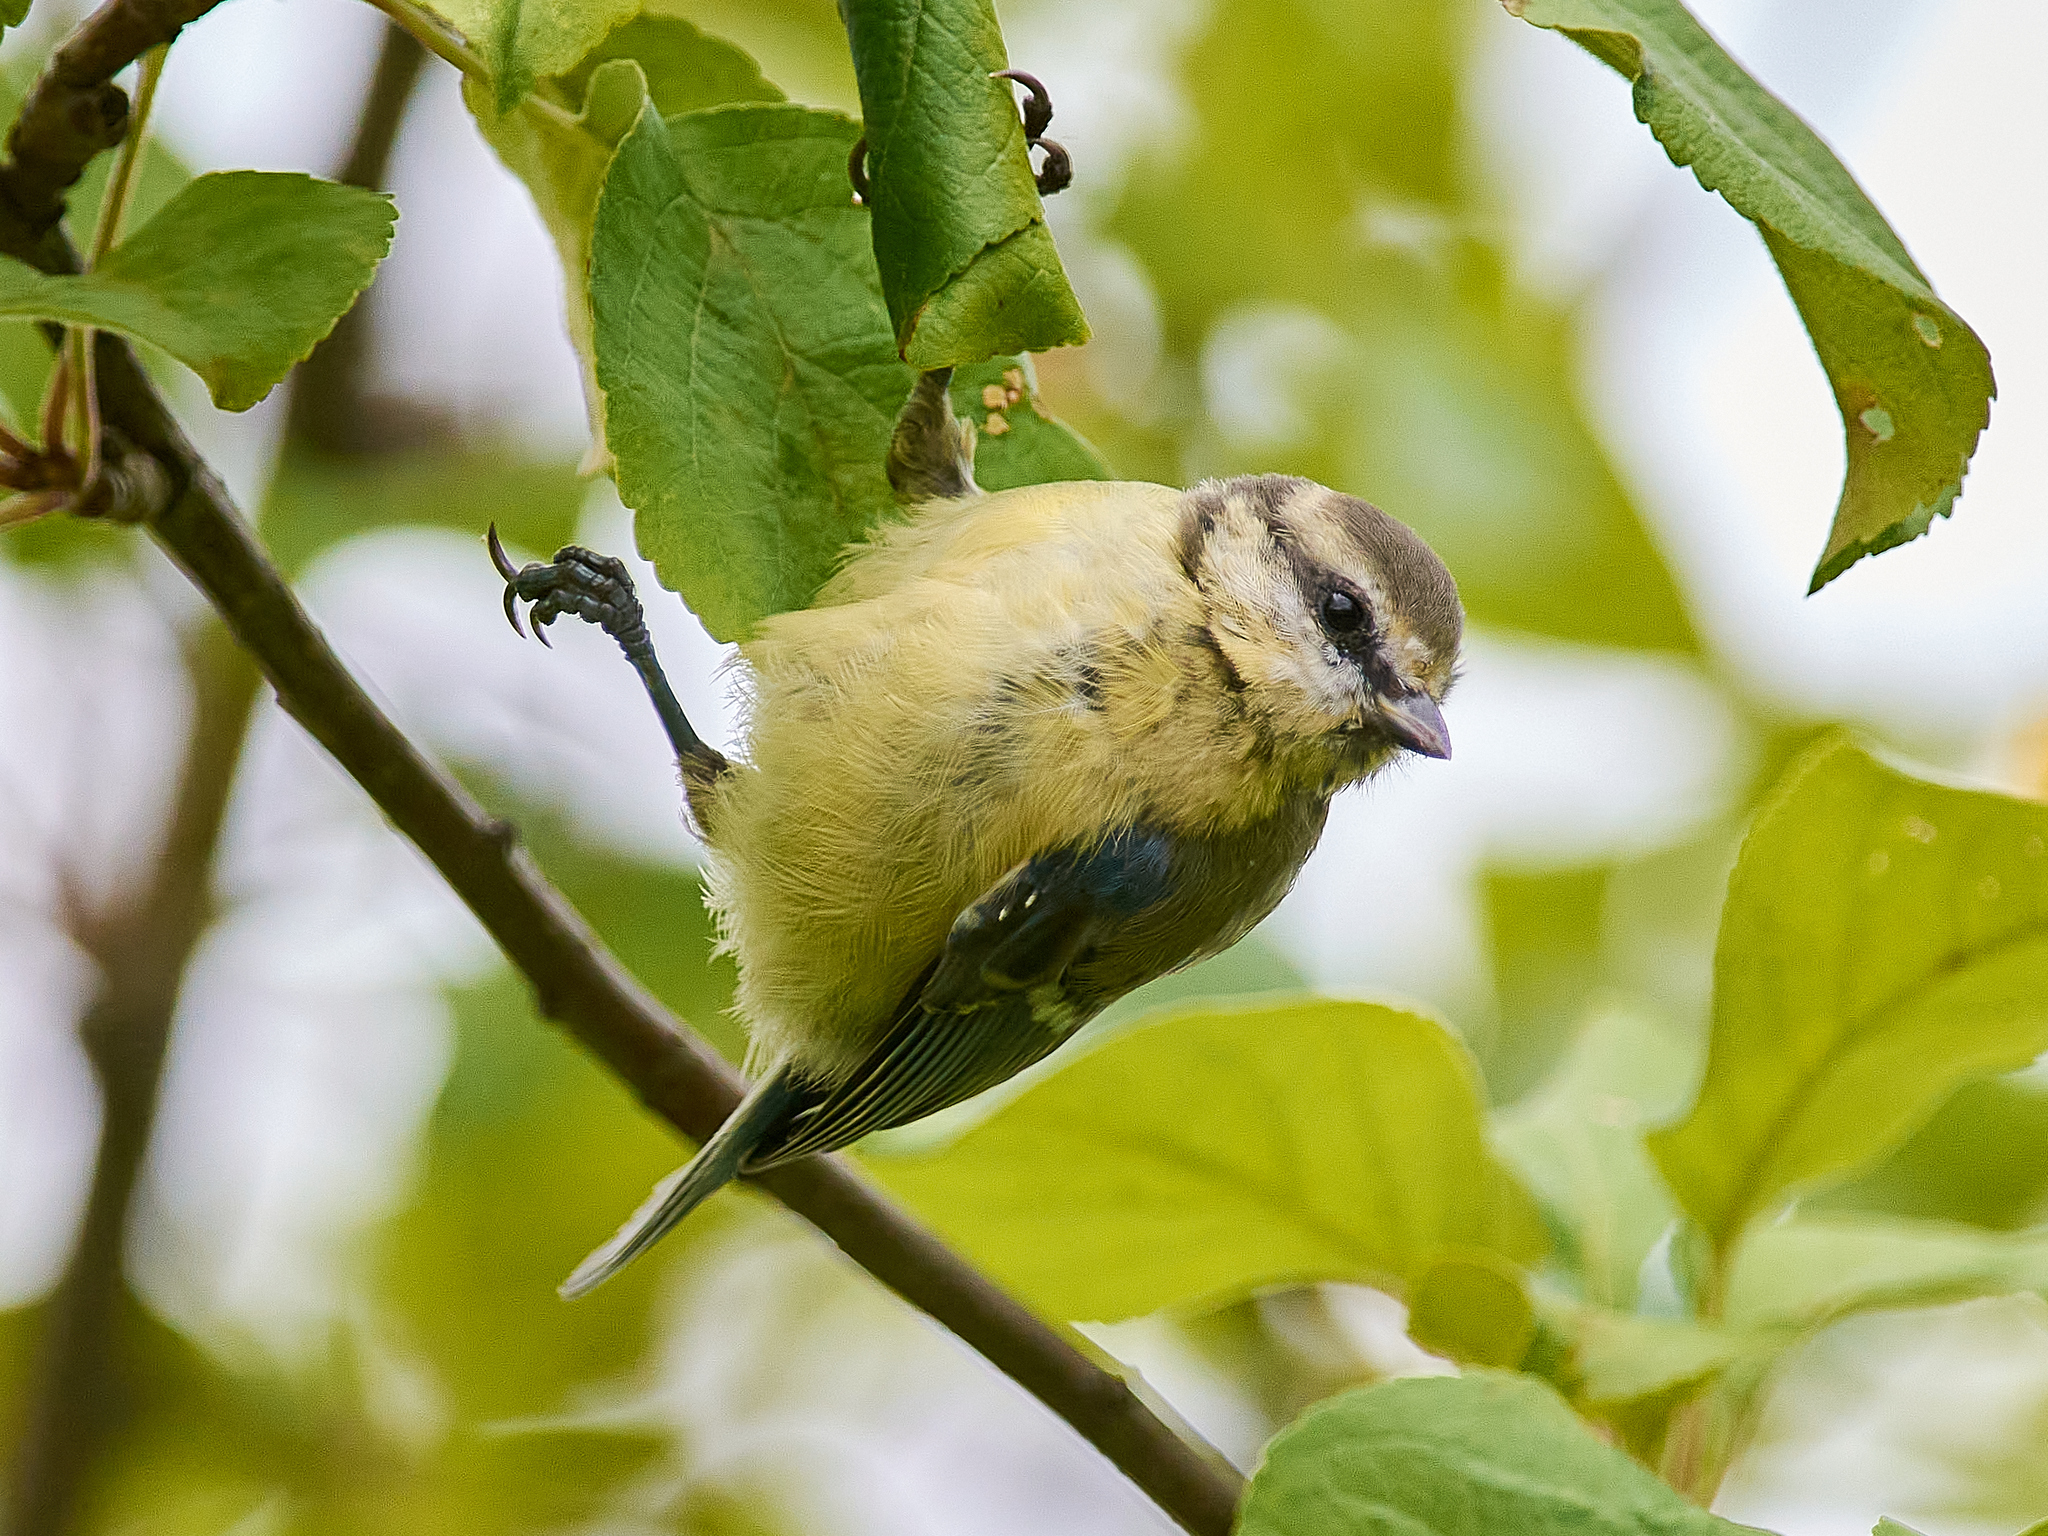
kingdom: Animalia
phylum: Chordata
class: Aves
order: Passeriformes
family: Paridae
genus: Cyanistes
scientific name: Cyanistes caeruleus
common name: Eurasian blue tit
